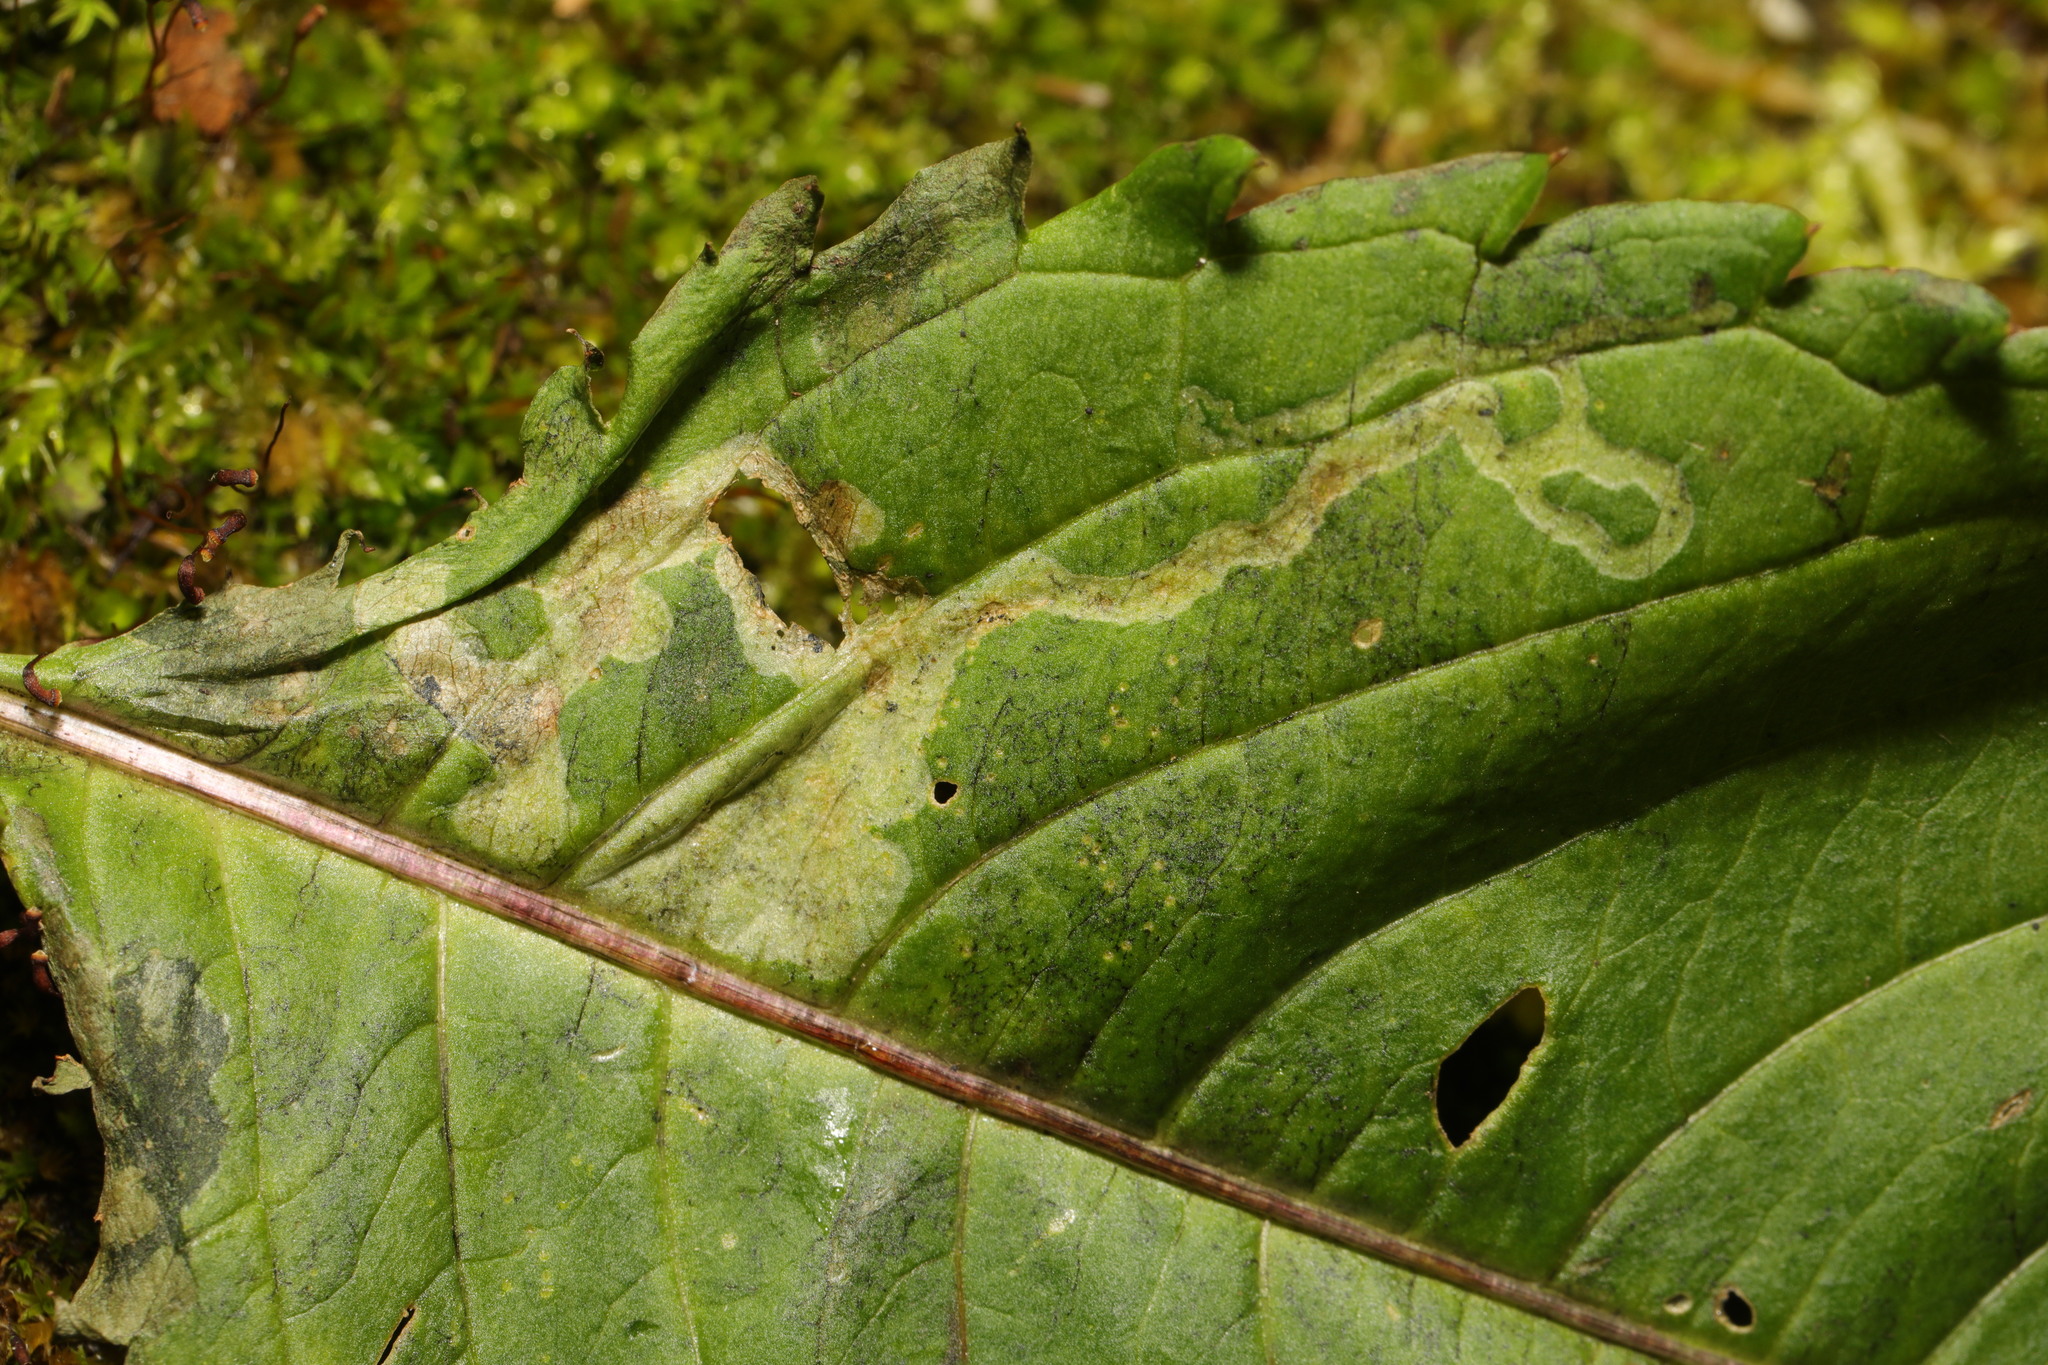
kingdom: Animalia
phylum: Arthropoda
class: Insecta
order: Diptera
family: Agromyzidae
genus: Phytoliriomyza
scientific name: Phytoliriomyza melampyga
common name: Jewelweed leaf-miner fly
